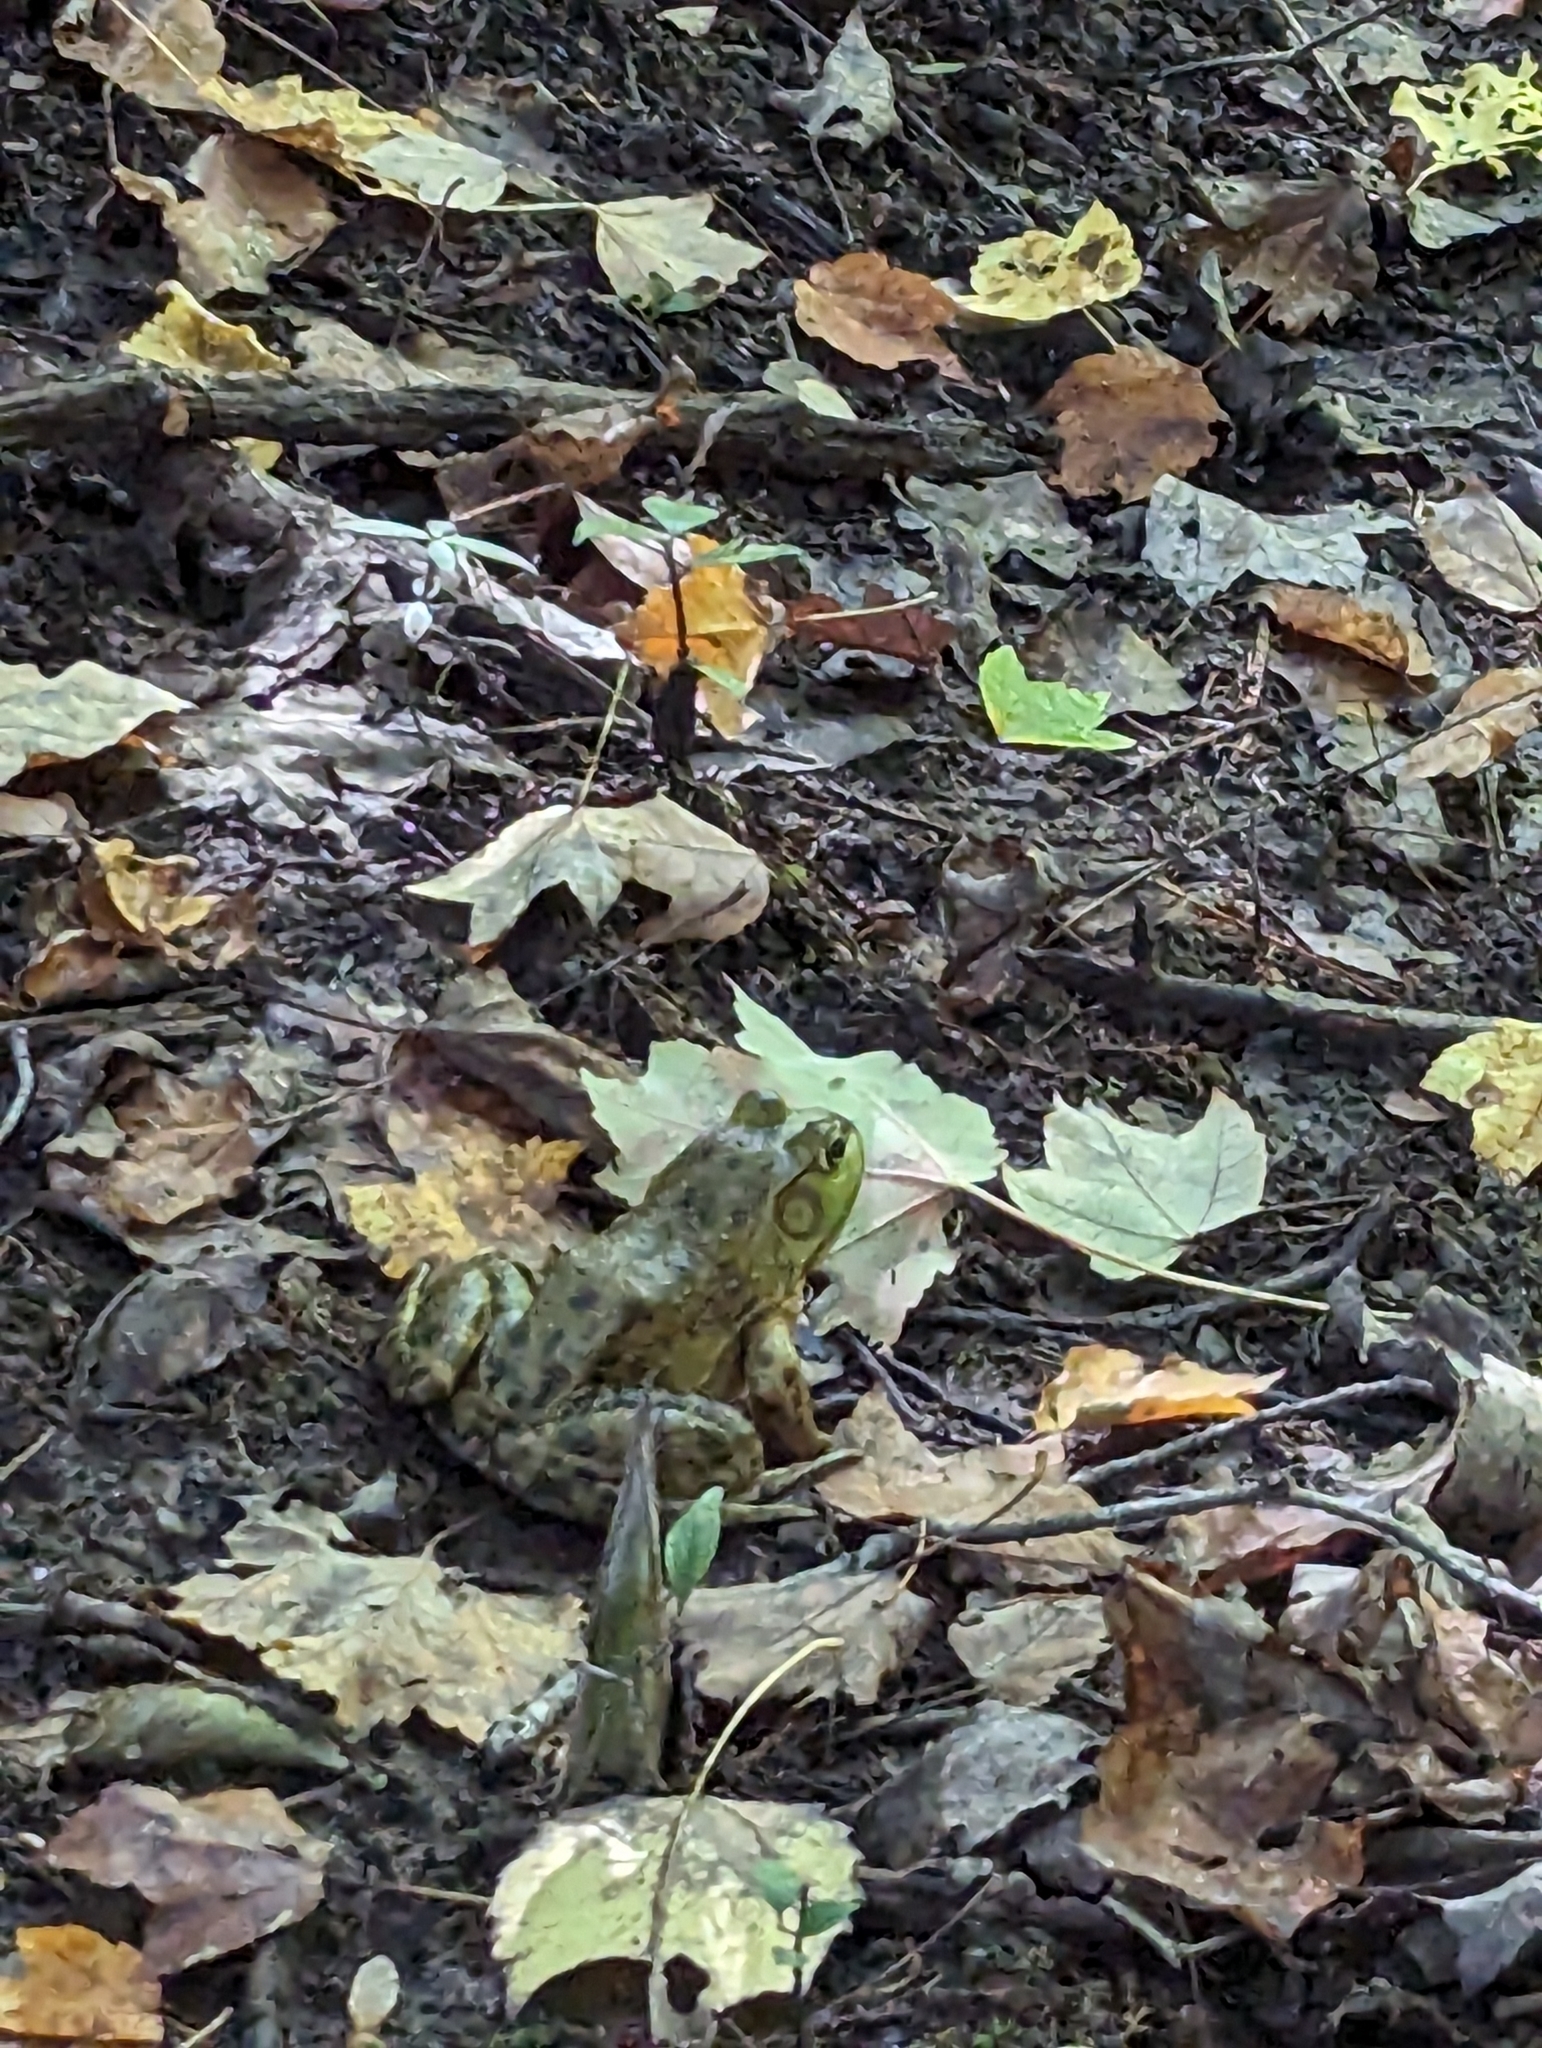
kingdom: Animalia
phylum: Chordata
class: Amphibia
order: Anura
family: Ranidae
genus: Lithobates
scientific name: Lithobates catesbeianus
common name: American bullfrog
